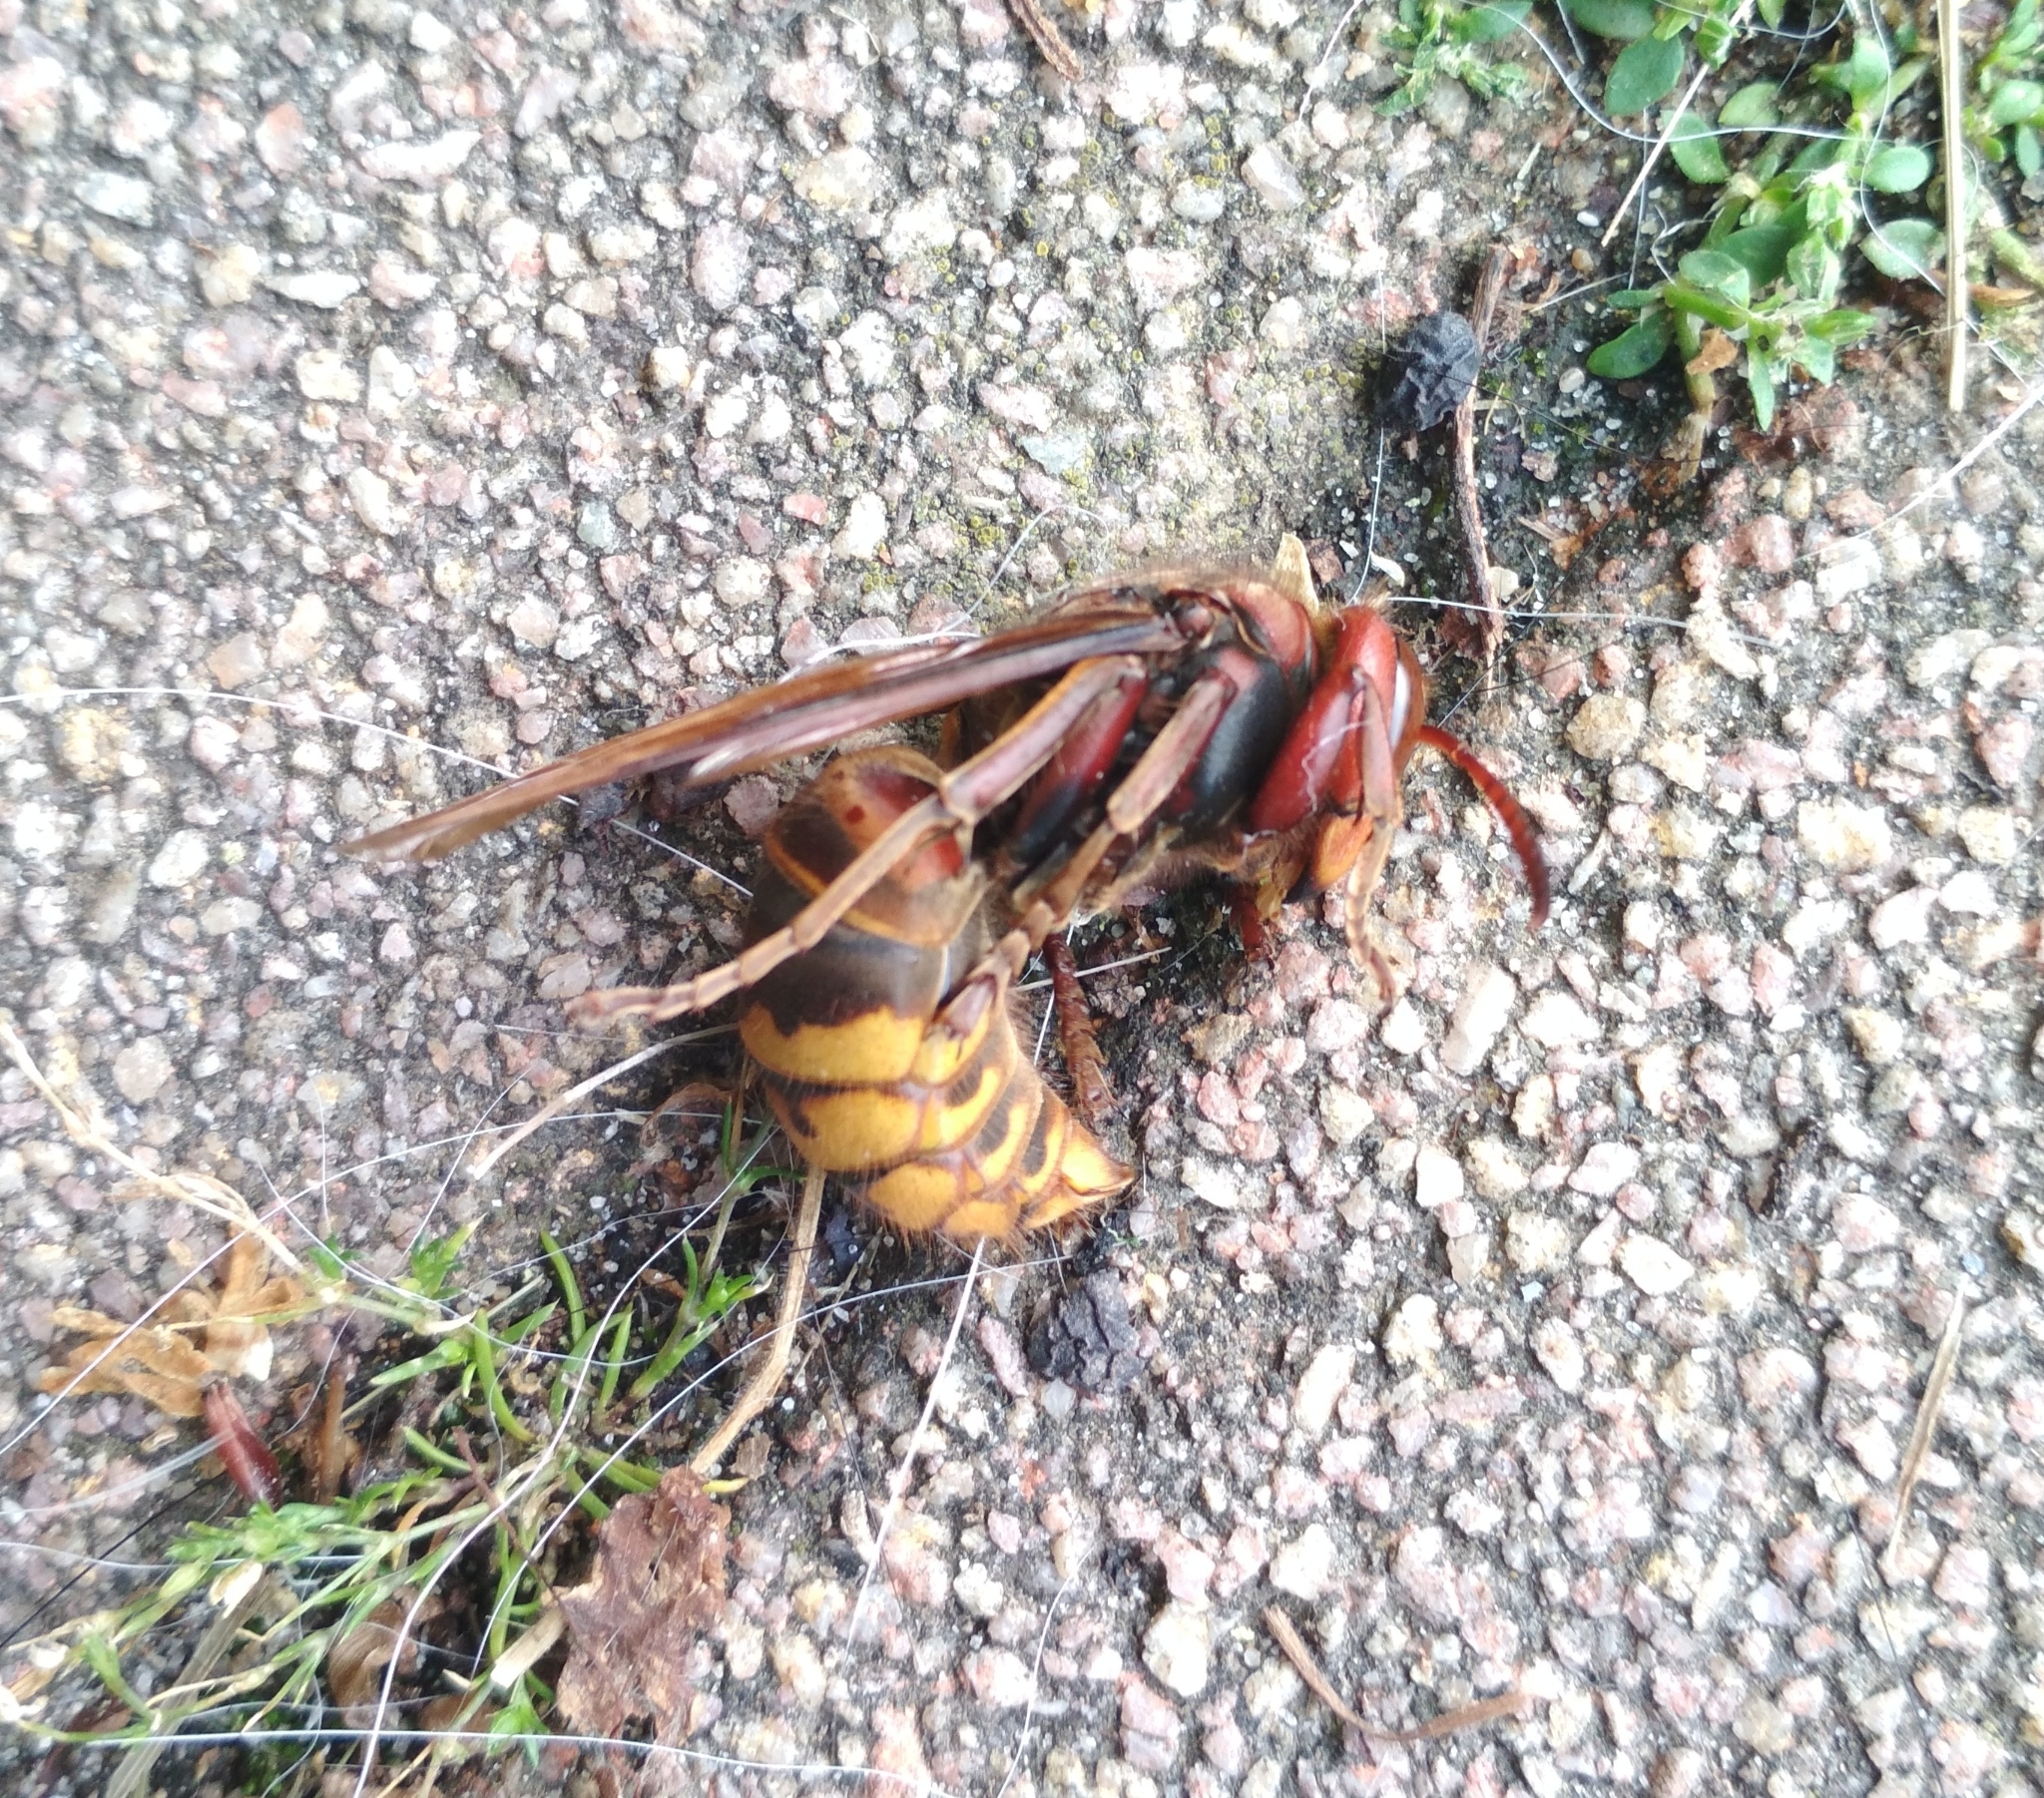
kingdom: Animalia
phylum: Arthropoda
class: Insecta
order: Hymenoptera
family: Vespidae
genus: Vespa
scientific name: Vespa crabro
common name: Hornet
